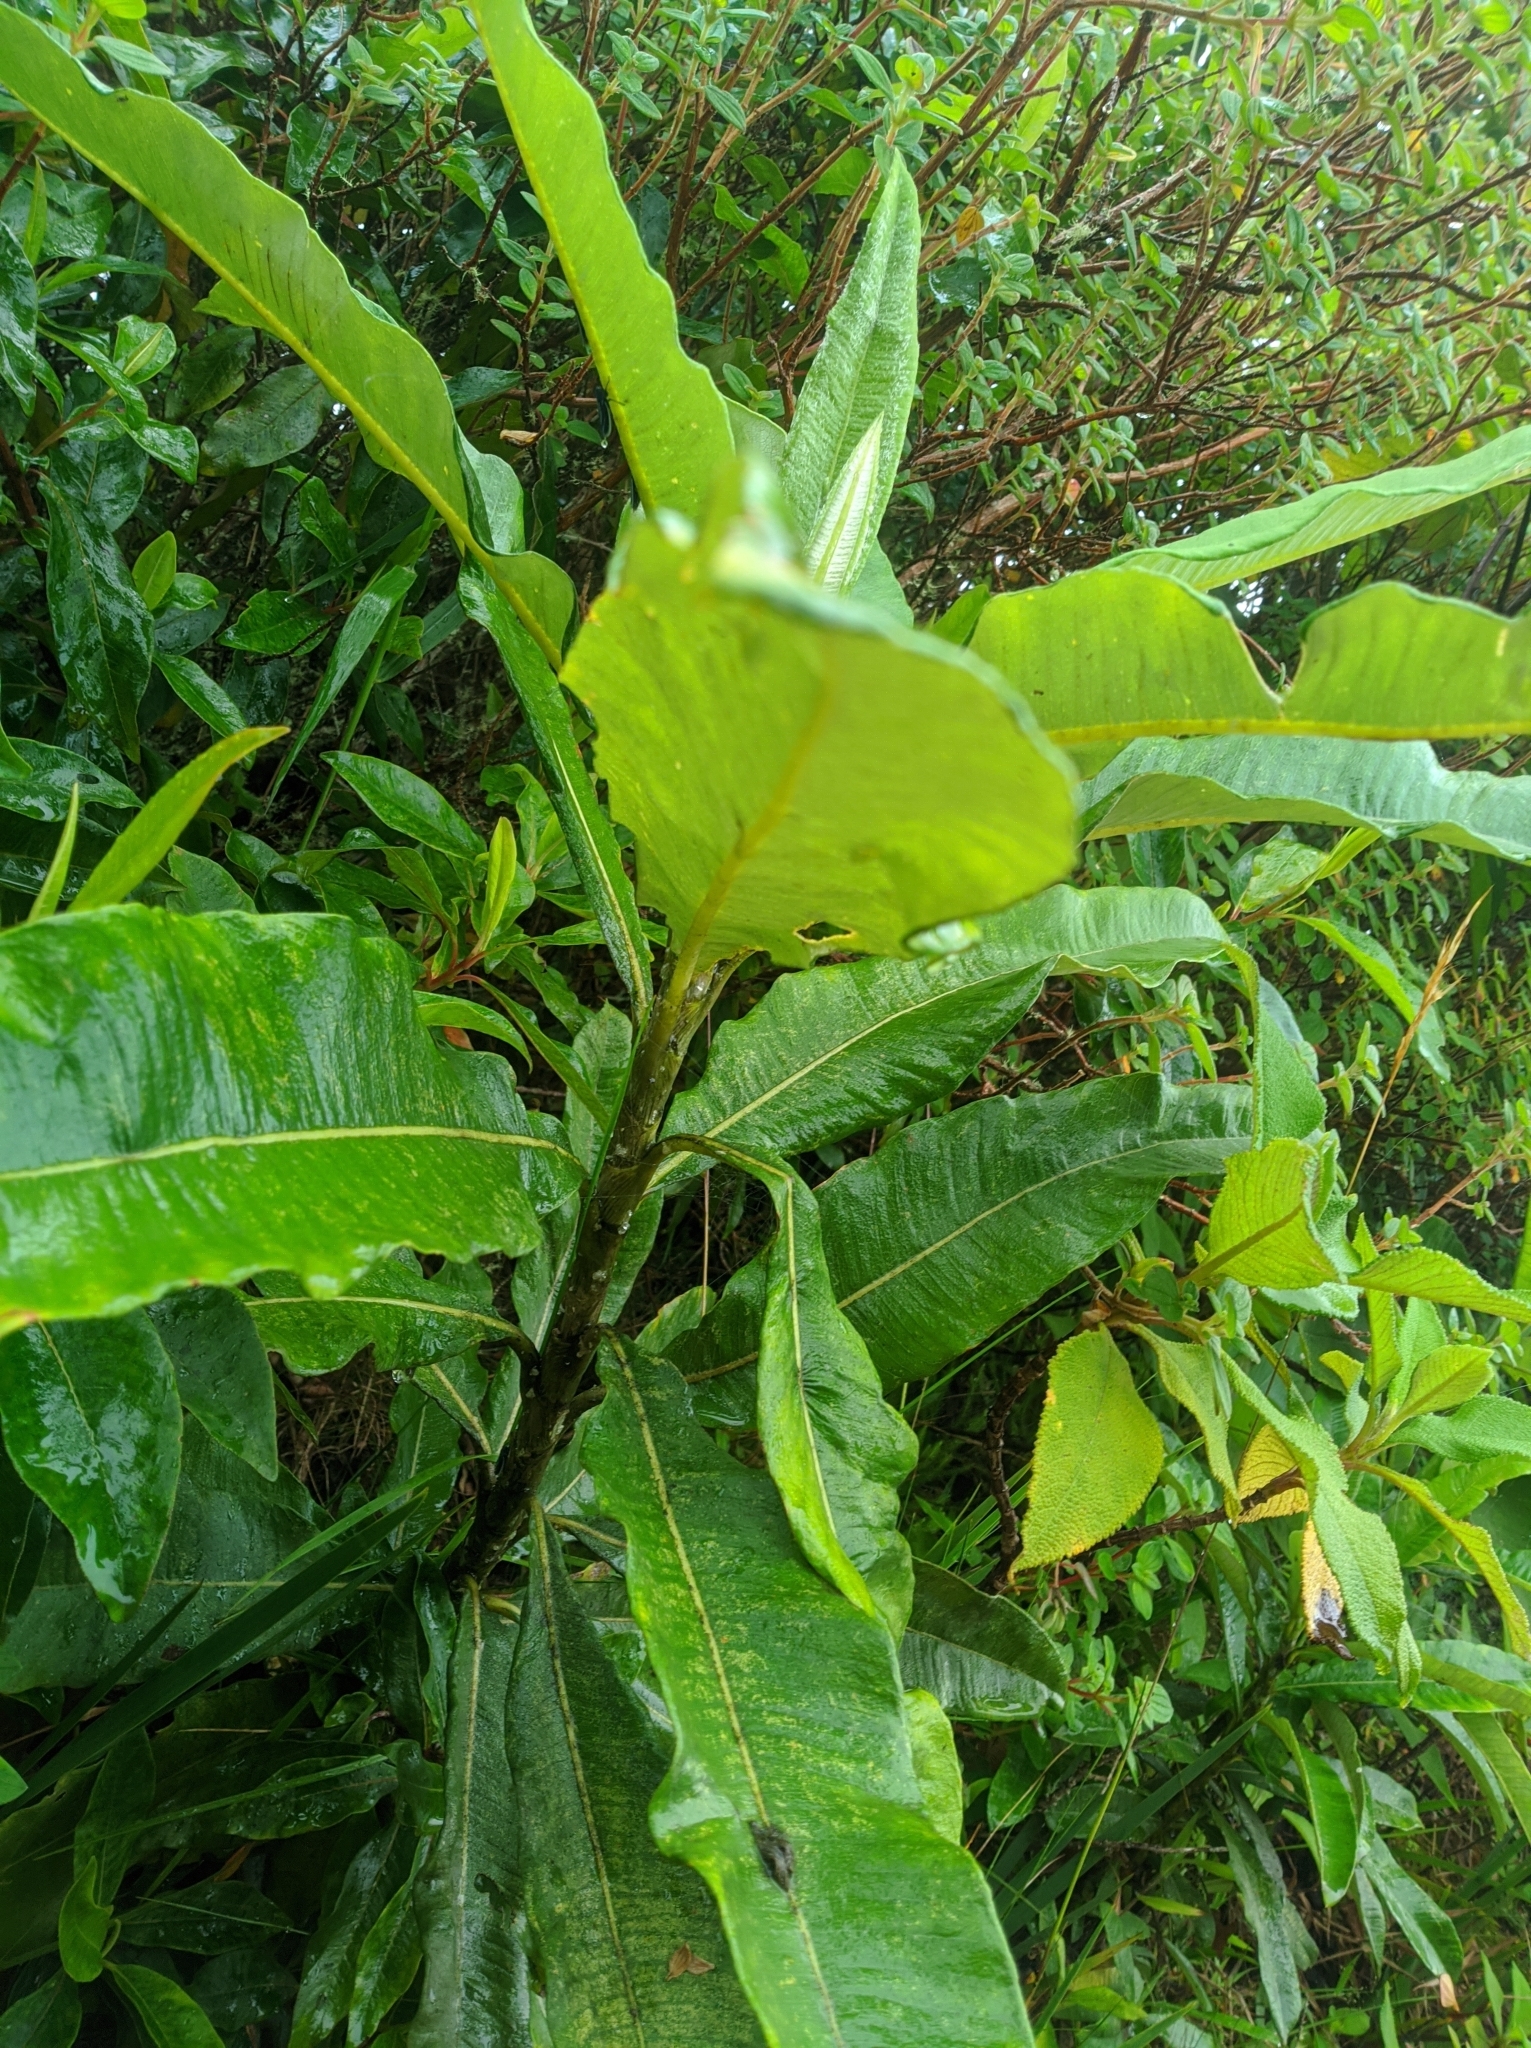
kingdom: Plantae
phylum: Tracheophyta
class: Magnoliopsida
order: Asterales
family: Asteraceae
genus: Espeletia
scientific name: Espeletia neriifolia
